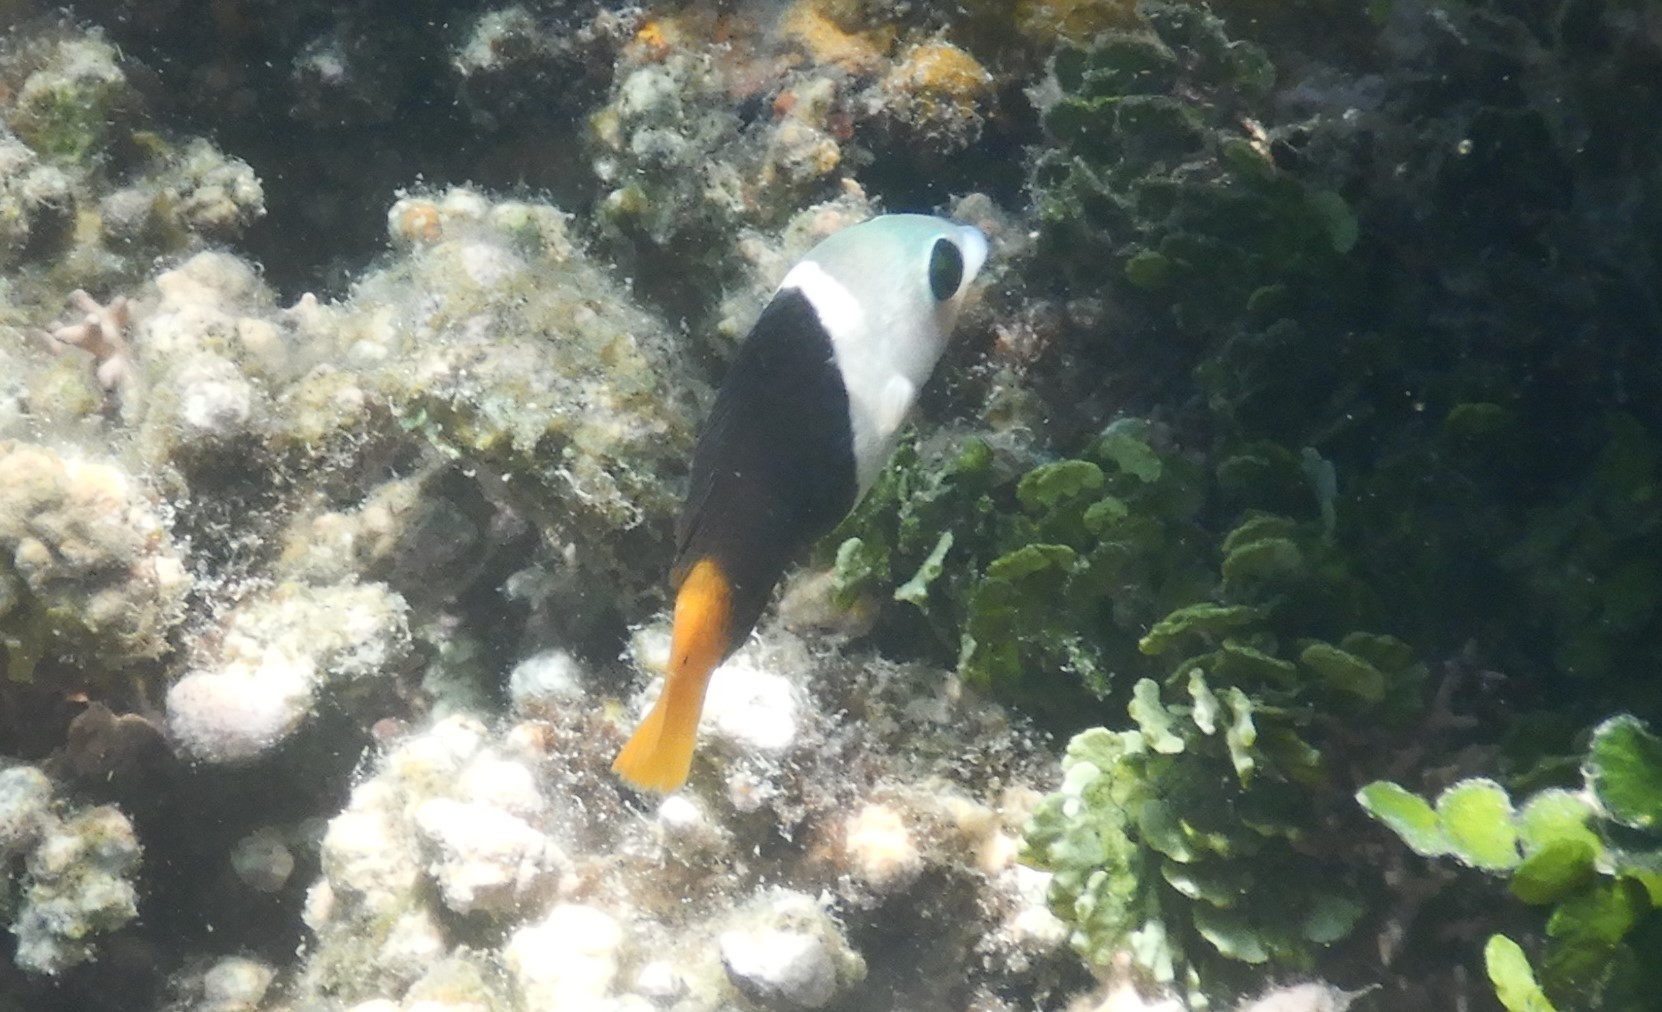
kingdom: Animalia
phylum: Chordata
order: Perciformes
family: Labridae
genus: Hemigymnus
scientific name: Hemigymnus melapterus
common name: Blackeye thicklip
